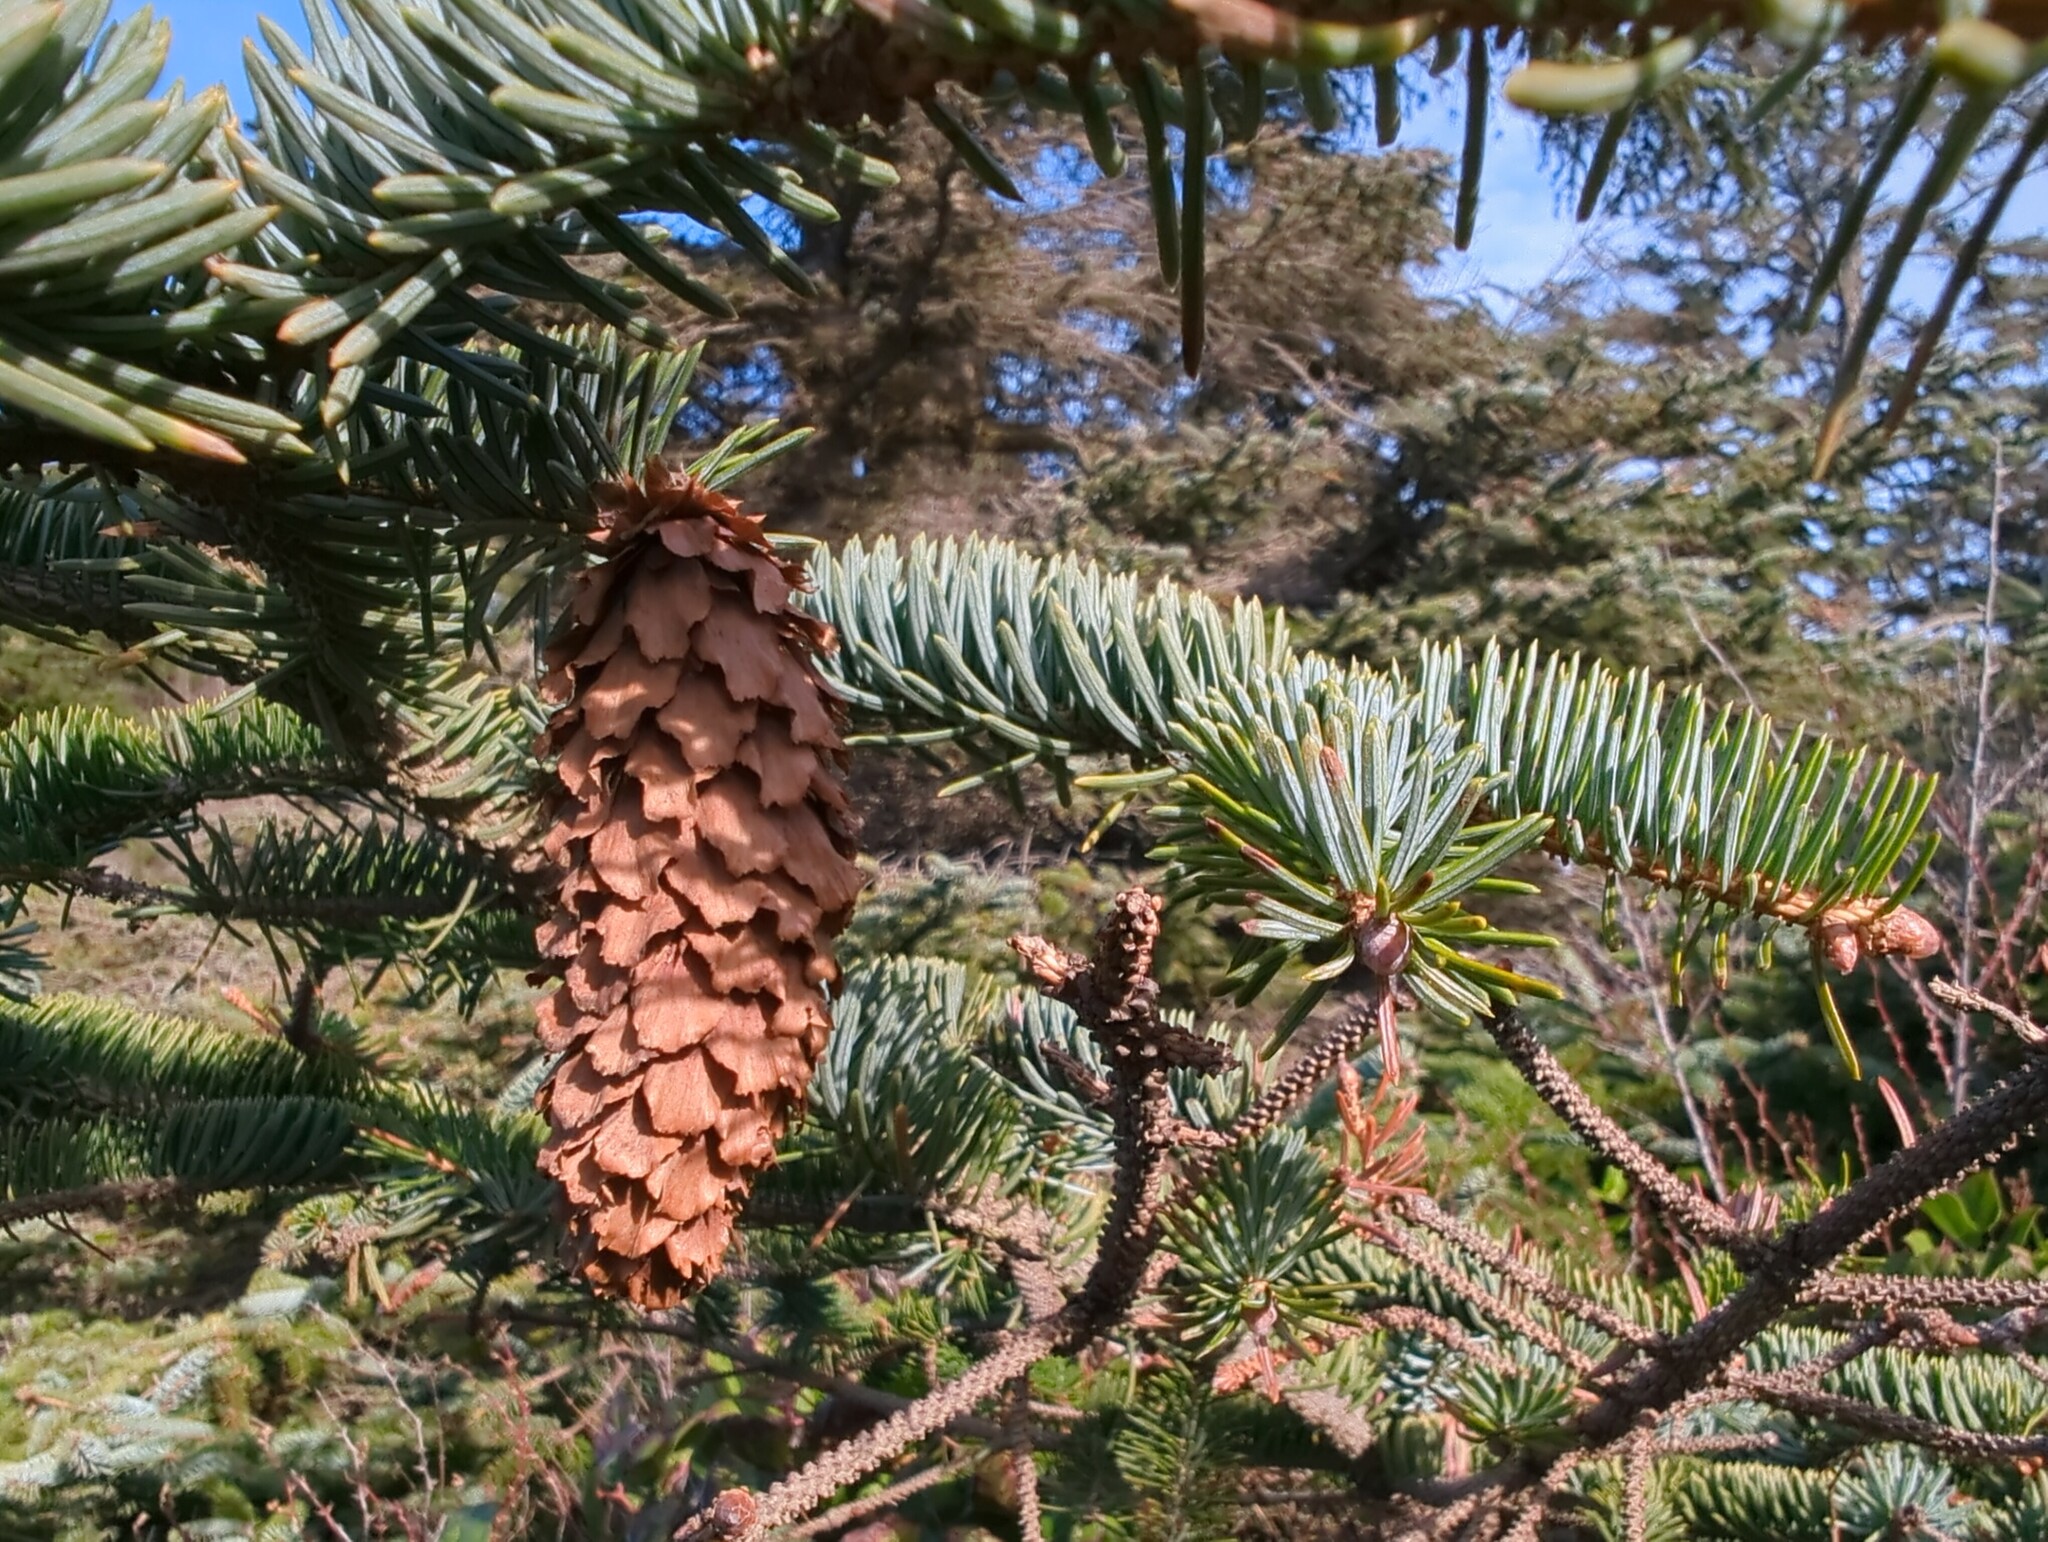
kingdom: Plantae
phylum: Tracheophyta
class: Pinopsida
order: Pinales
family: Pinaceae
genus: Picea
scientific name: Picea sitchensis
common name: Sitka spruce
